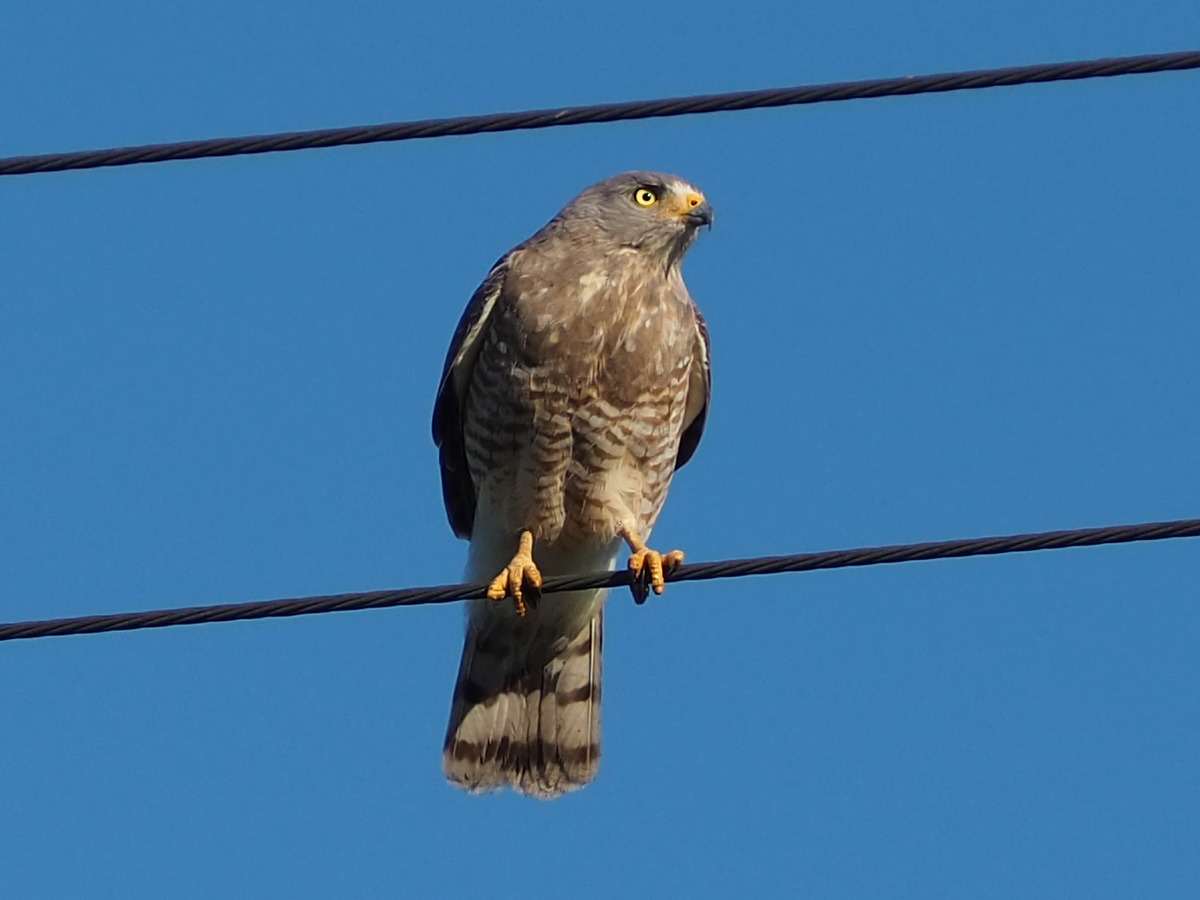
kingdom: Animalia
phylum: Chordata
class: Aves
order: Accipitriformes
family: Accipitridae
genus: Rupornis
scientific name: Rupornis magnirostris
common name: Roadside hawk
